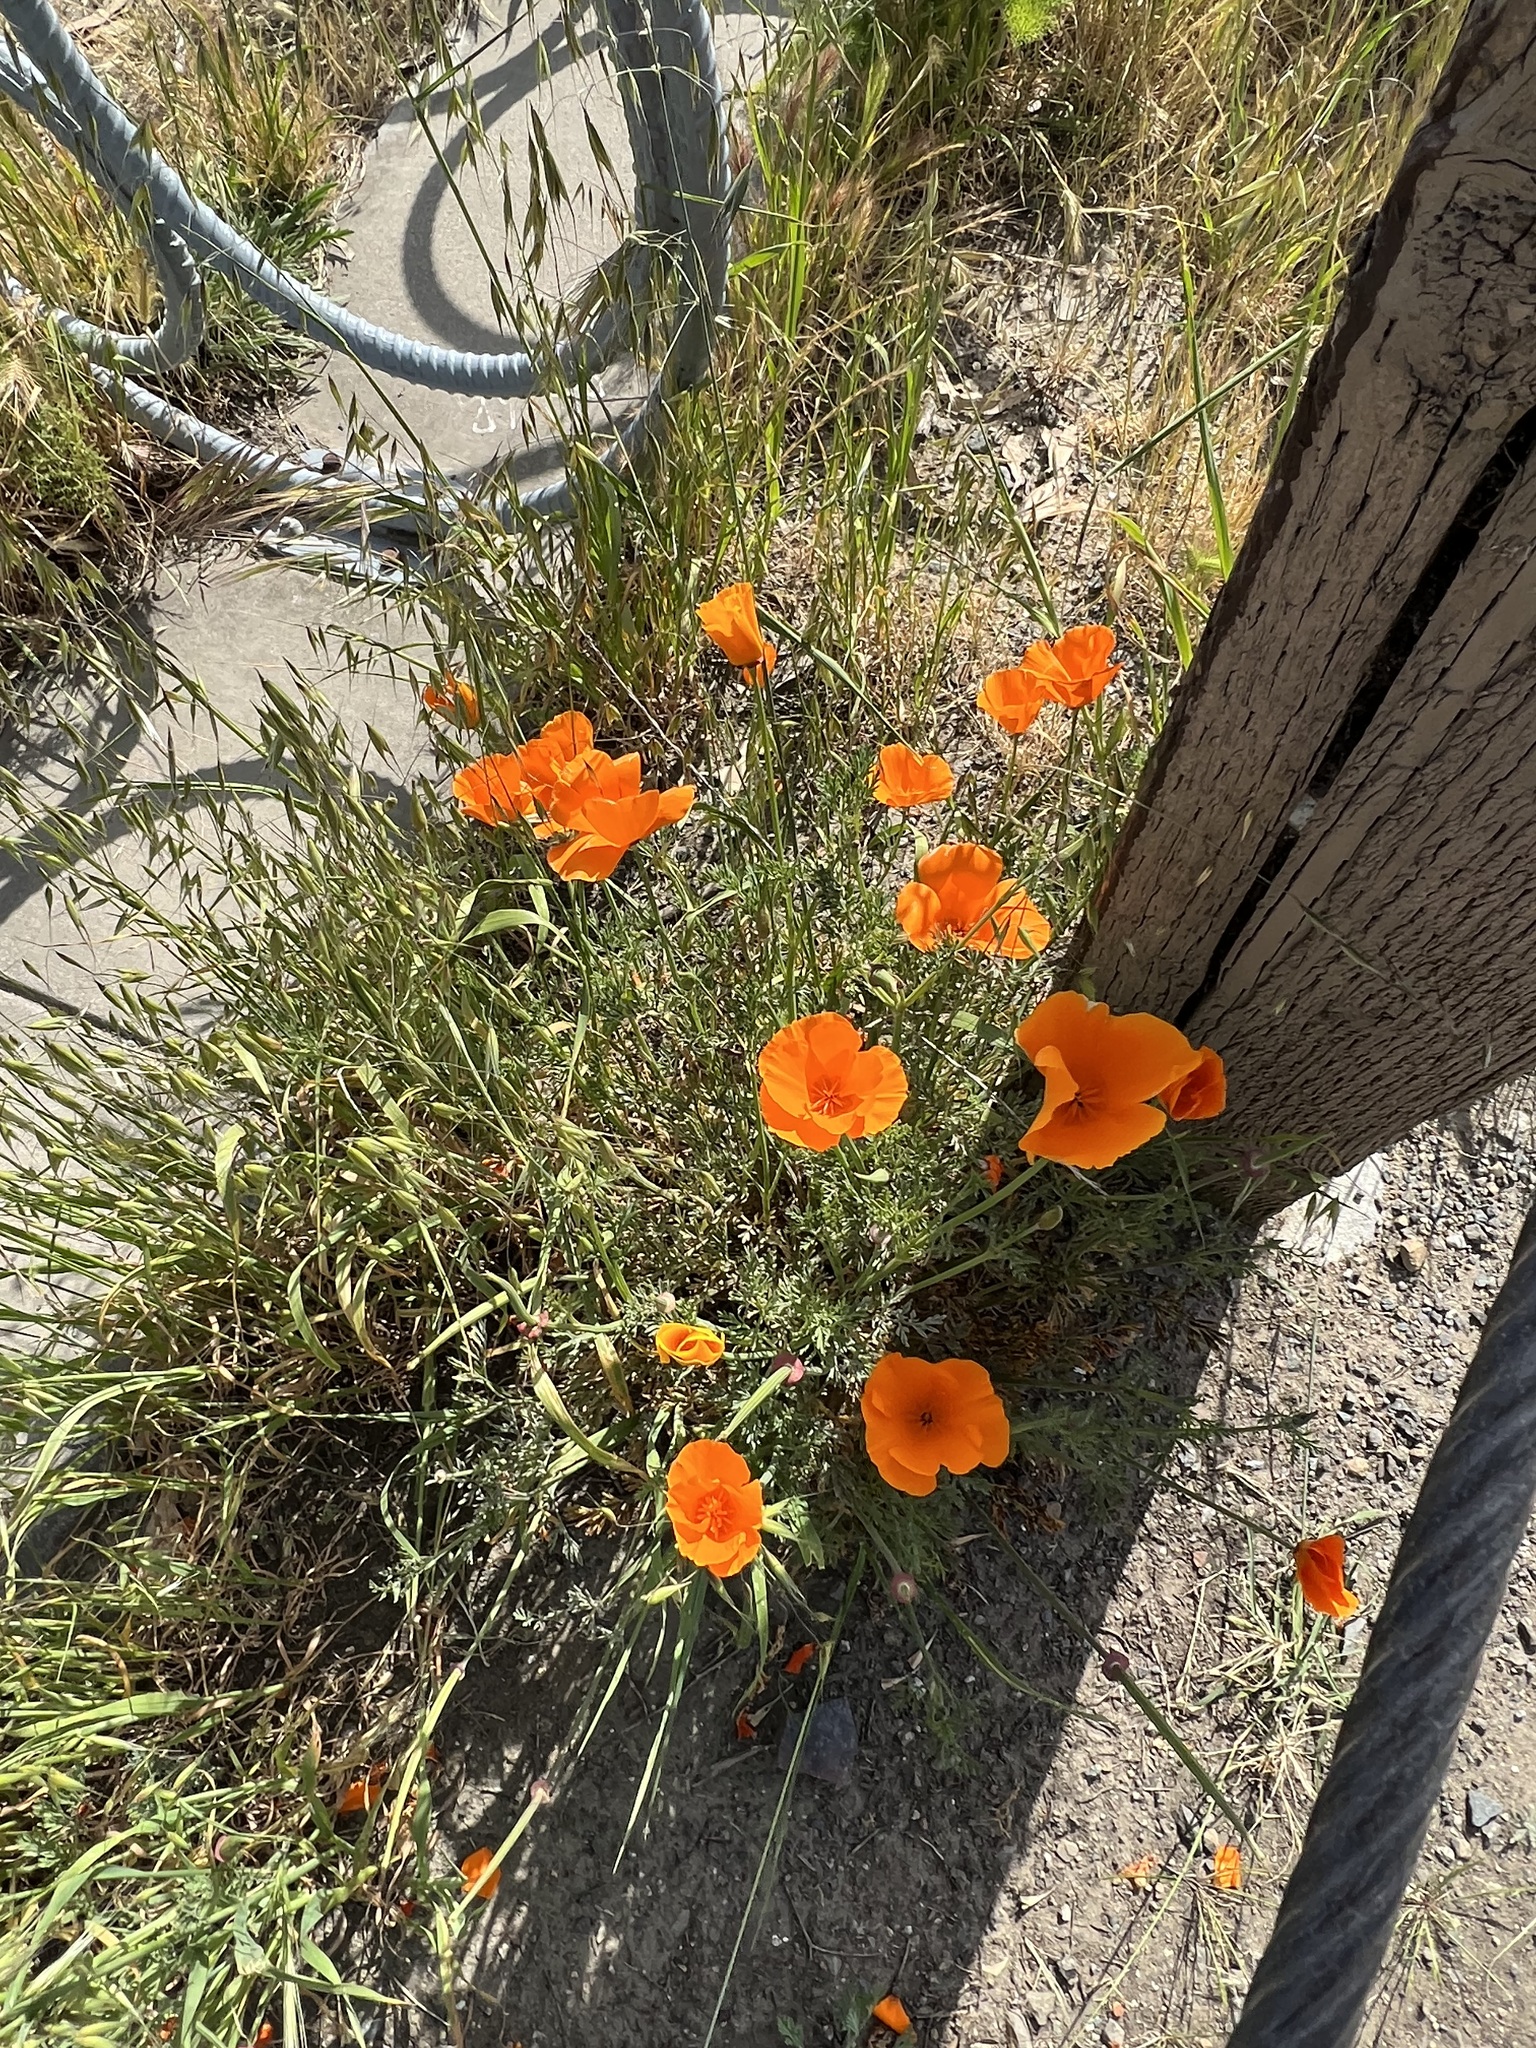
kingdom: Plantae
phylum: Tracheophyta
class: Magnoliopsida
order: Ranunculales
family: Papaveraceae
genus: Eschscholzia
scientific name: Eschscholzia californica
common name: California poppy
